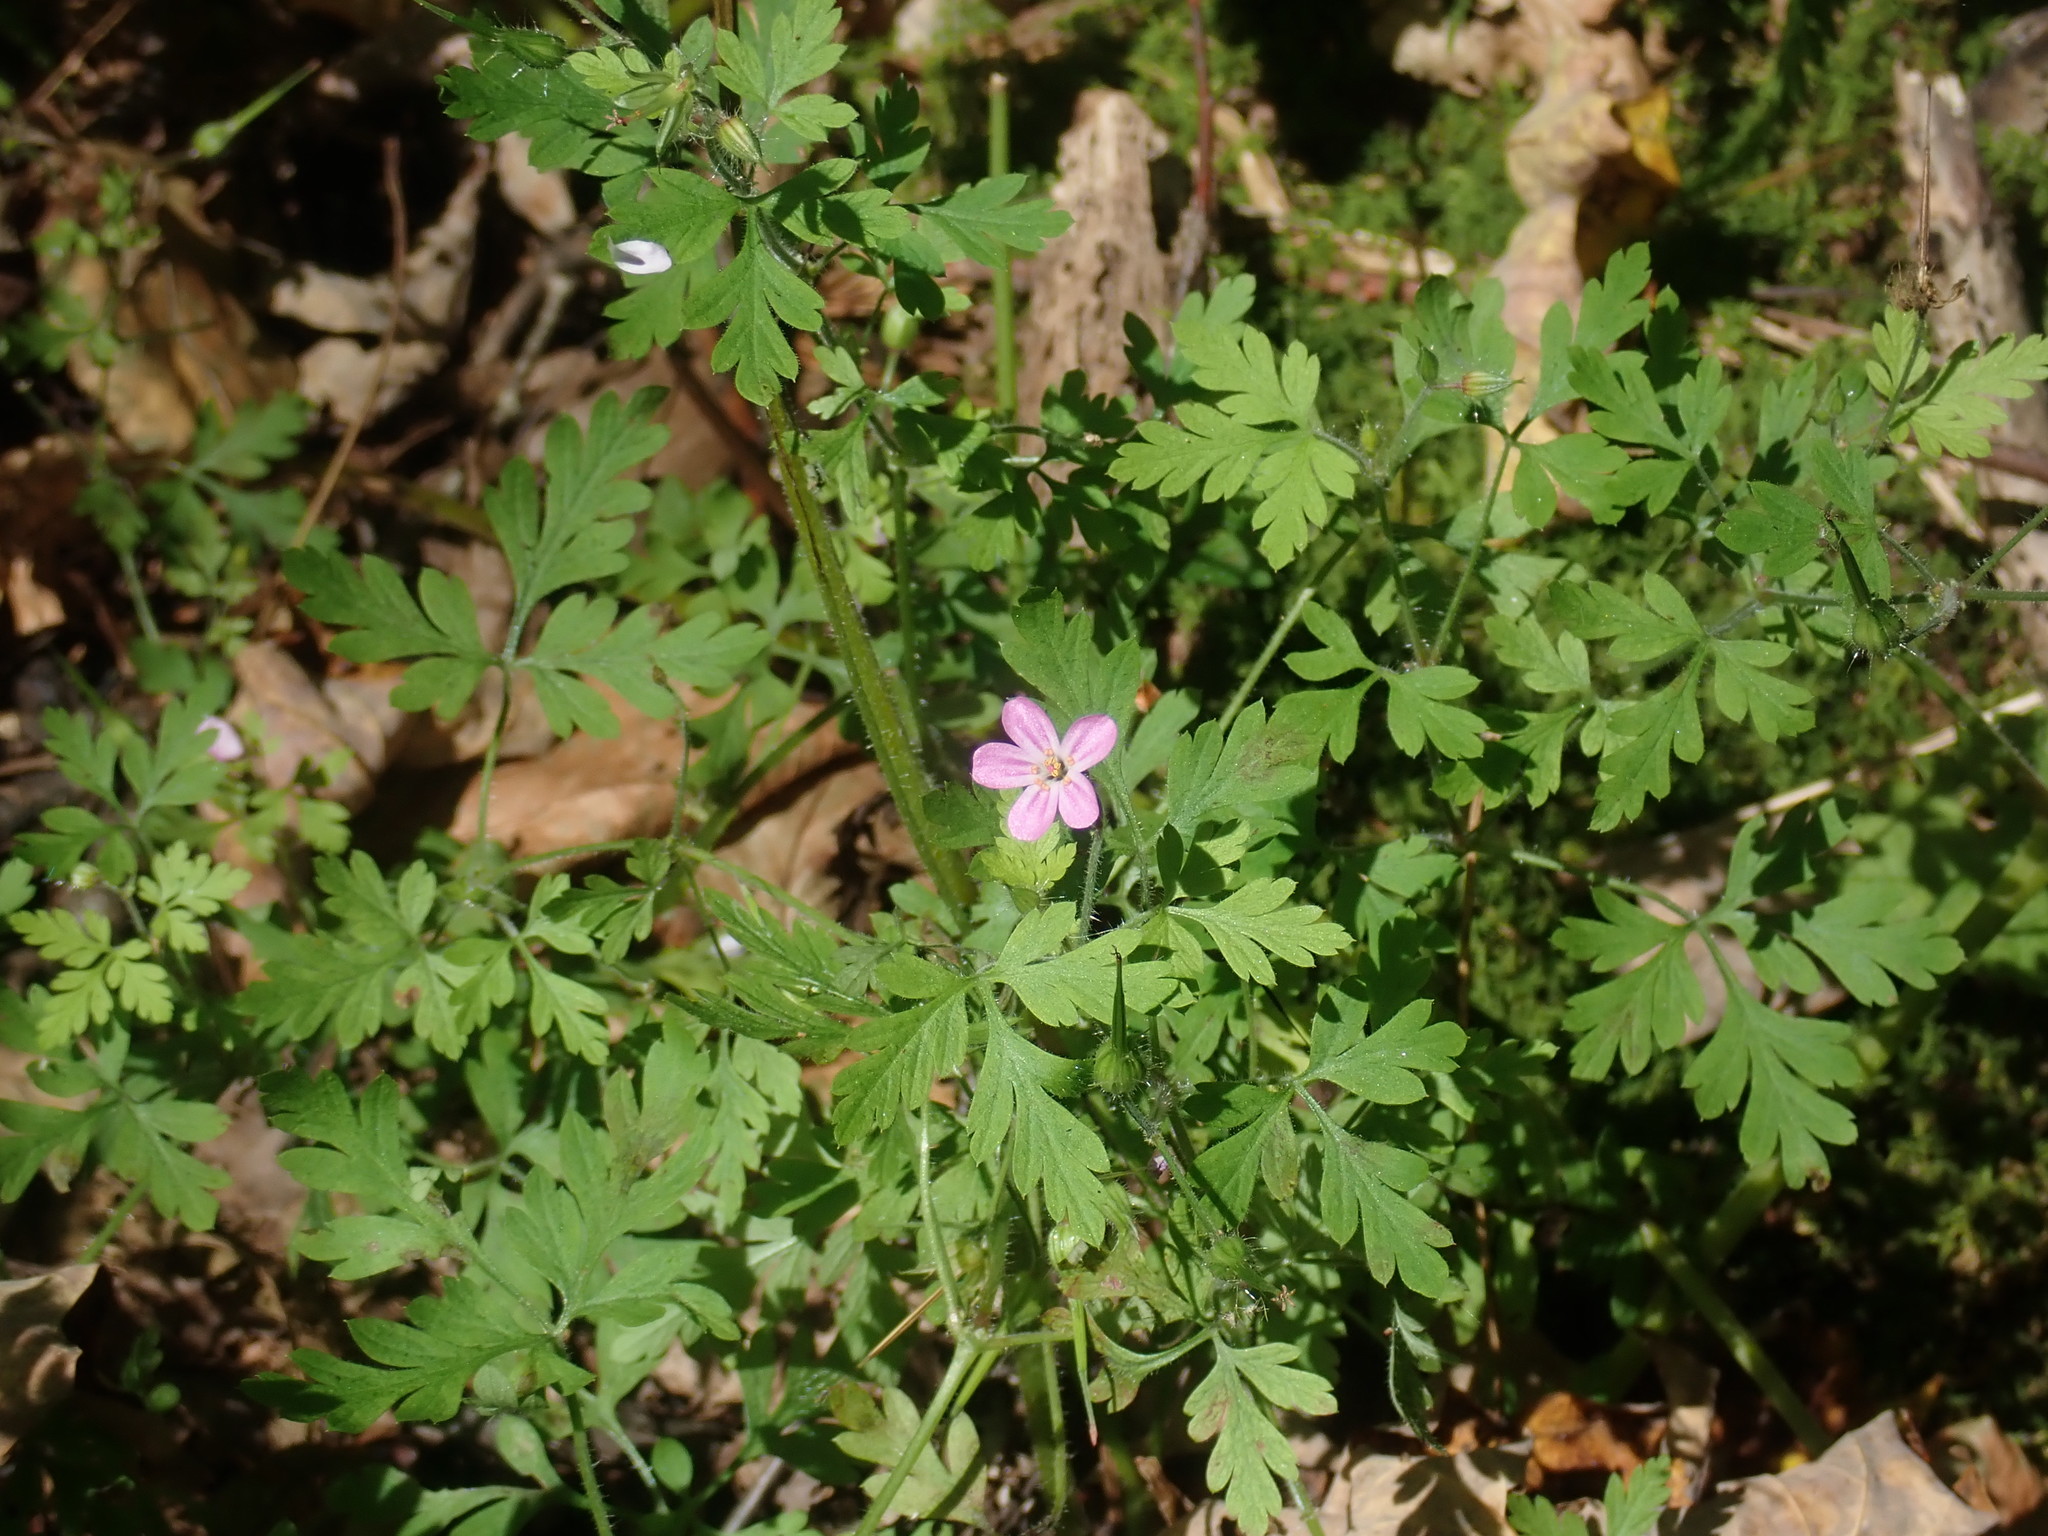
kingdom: Plantae
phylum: Tracheophyta
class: Magnoliopsida
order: Geraniales
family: Geraniaceae
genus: Geranium
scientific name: Geranium robertianum
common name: Herb-robert
